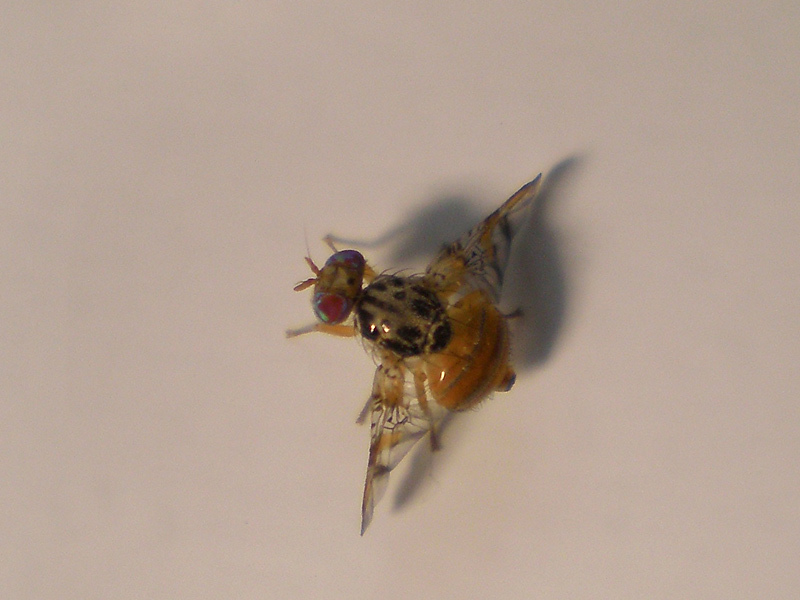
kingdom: Animalia
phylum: Arthropoda
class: Insecta
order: Diptera
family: Tephritidae
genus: Ceratitis
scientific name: Ceratitis capitata
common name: Mediterranean fruit fly
